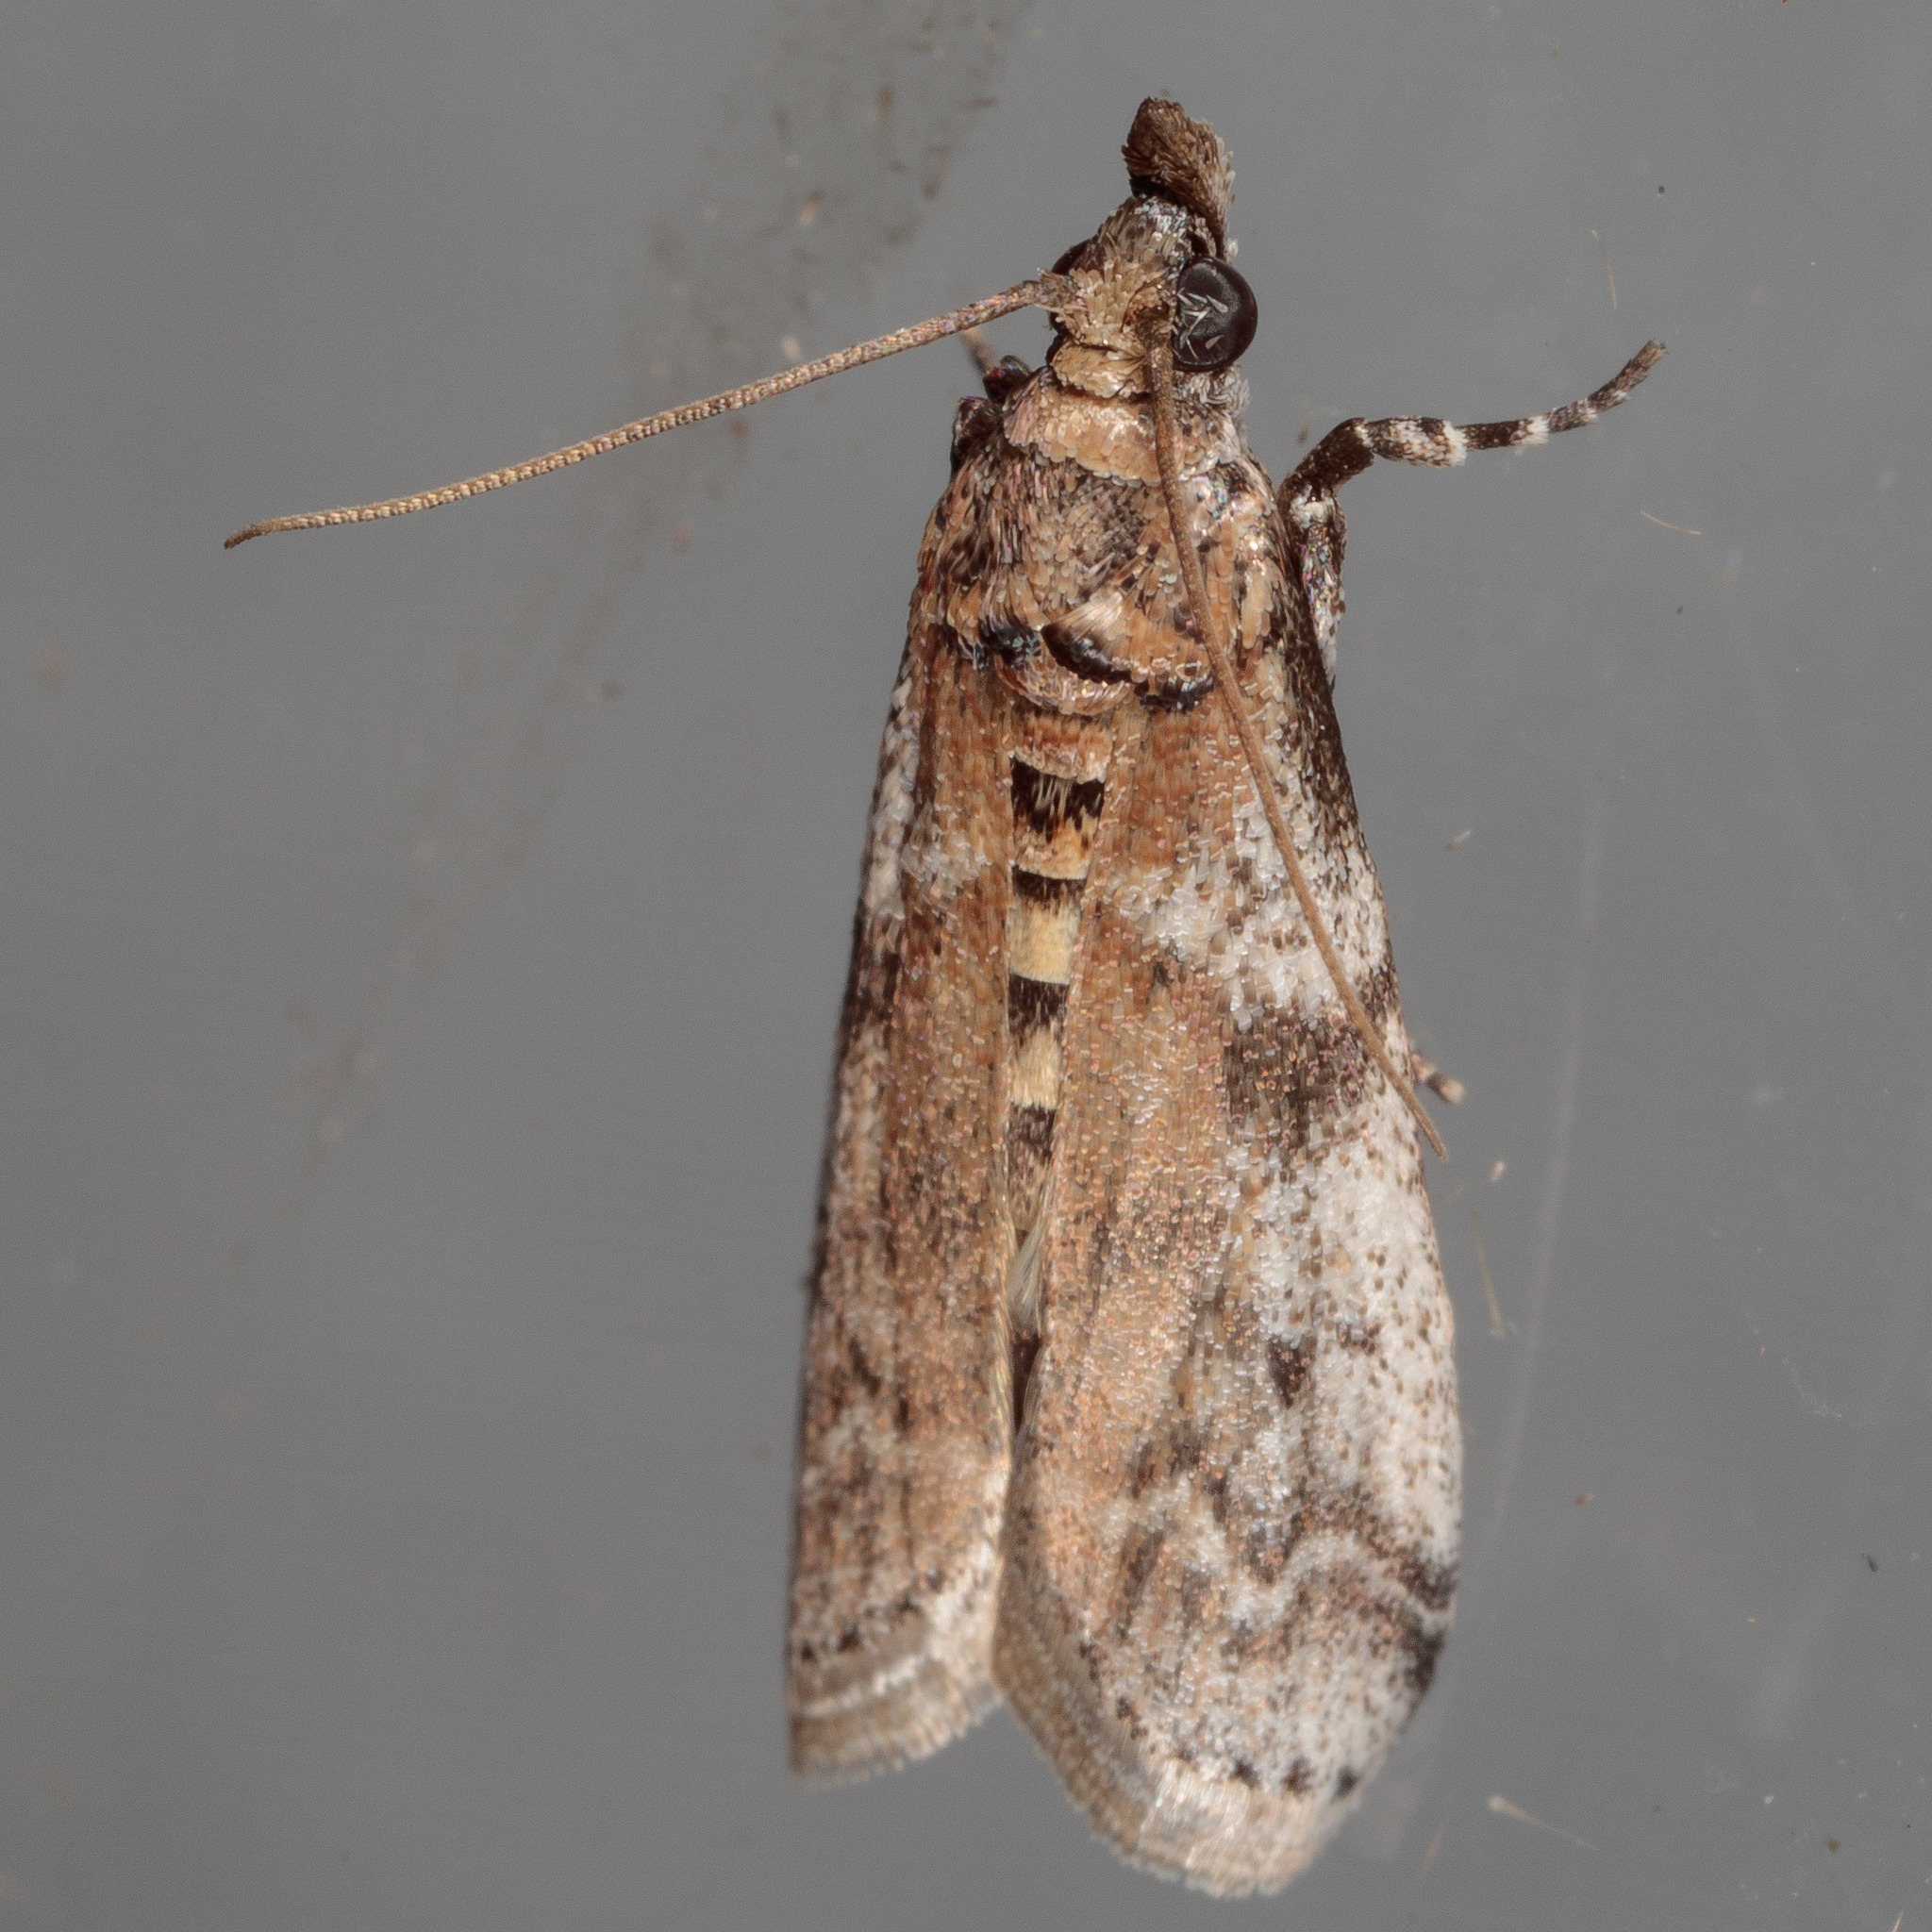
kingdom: Animalia
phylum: Arthropoda
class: Insecta
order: Lepidoptera
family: Pyralidae
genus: Laetilia
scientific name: Laetilia coccidivora
